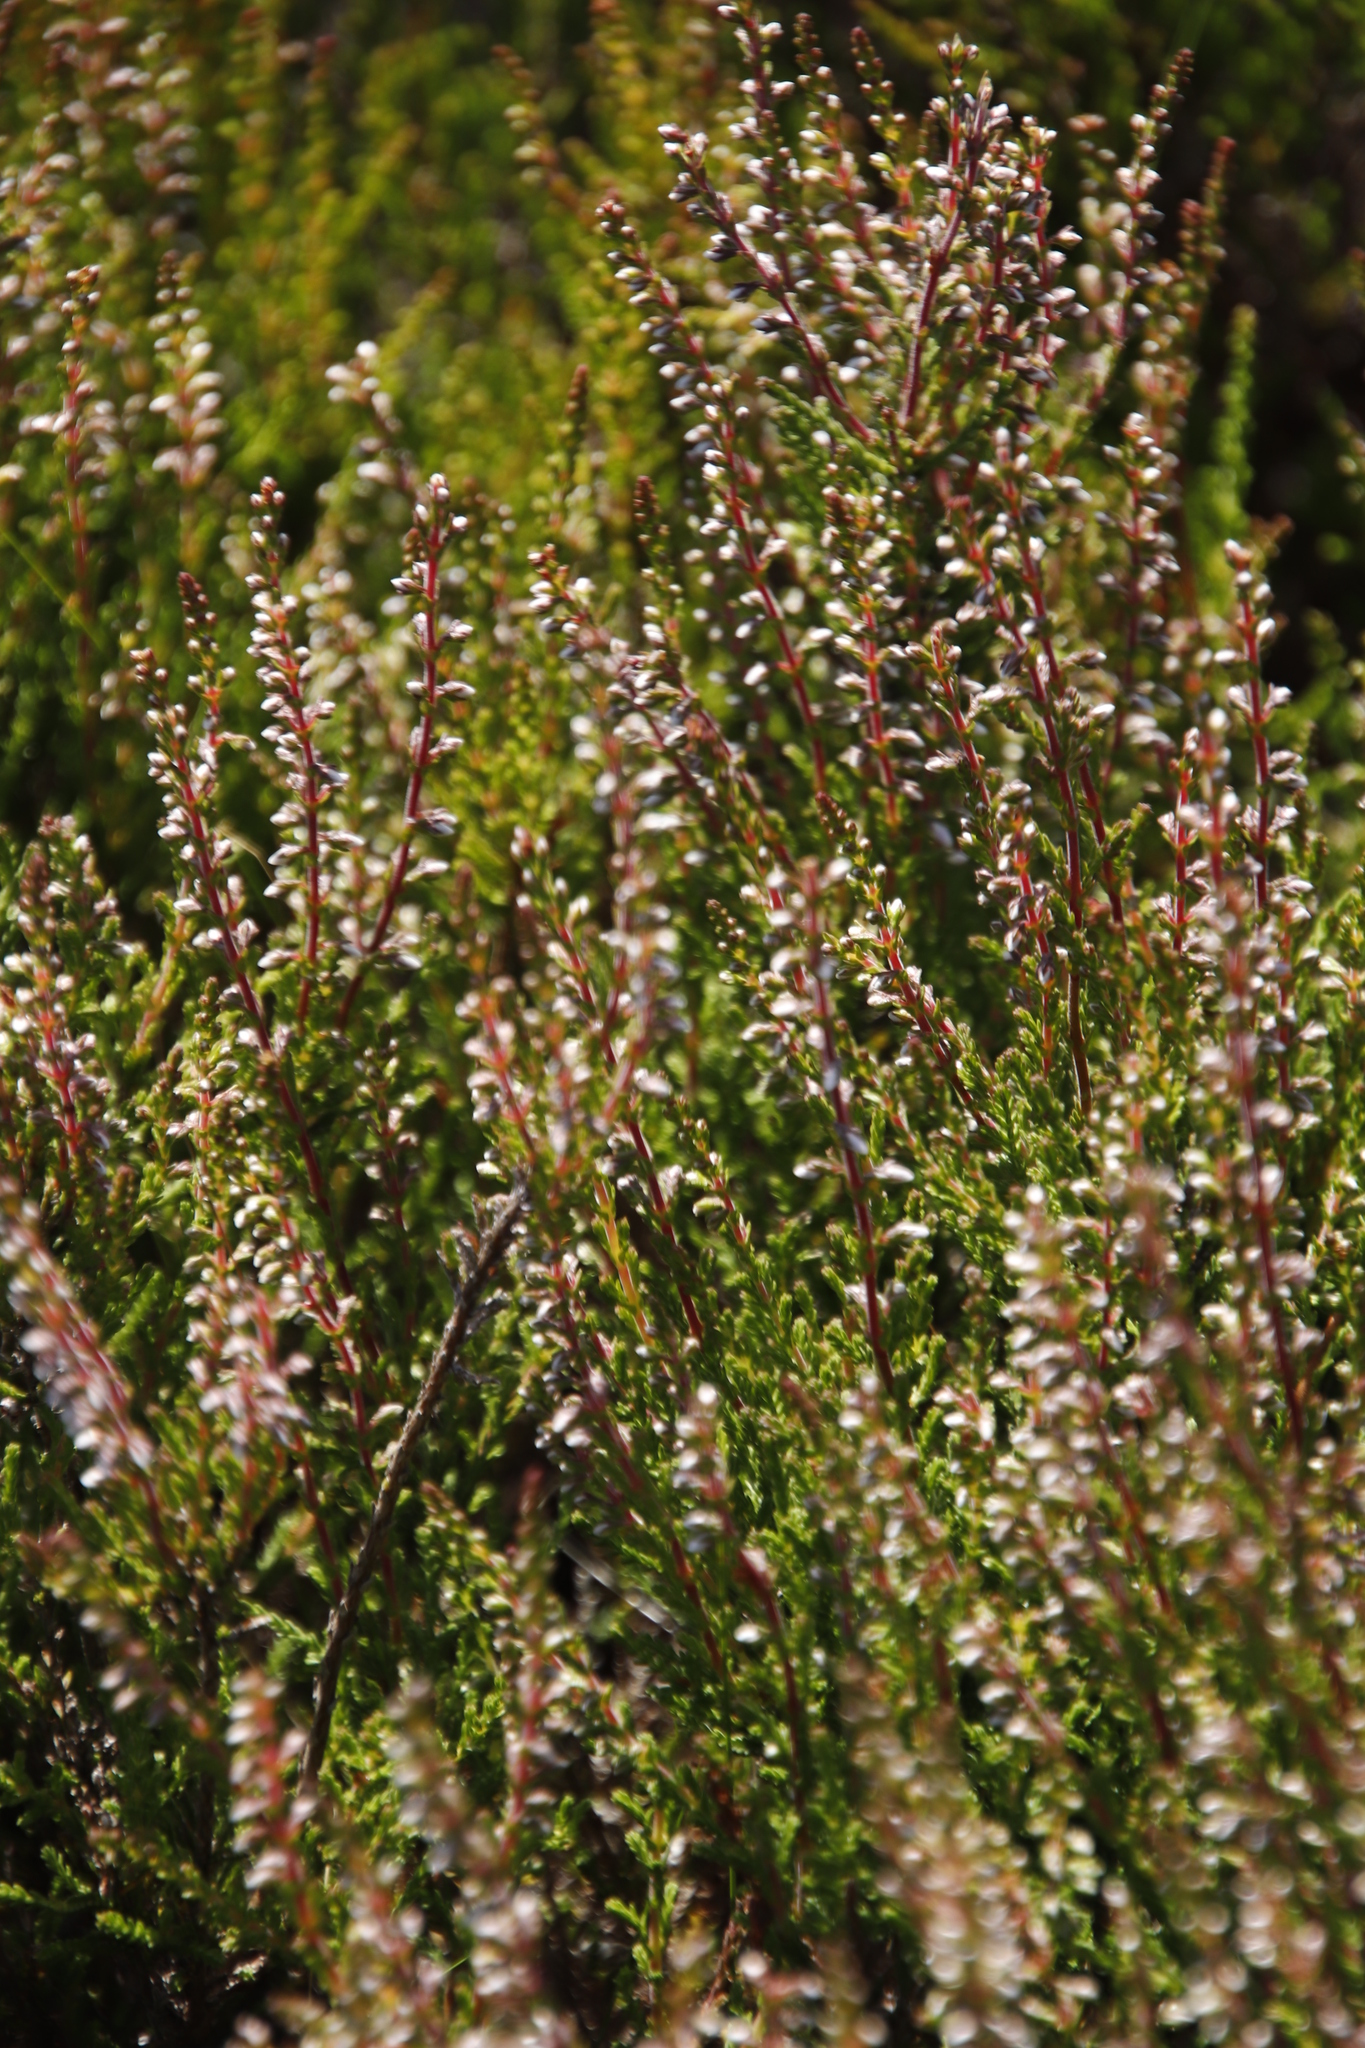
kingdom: Plantae
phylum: Tracheophyta
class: Magnoliopsida
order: Ericales
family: Ericaceae
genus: Calluna
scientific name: Calluna vulgaris
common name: Heather
